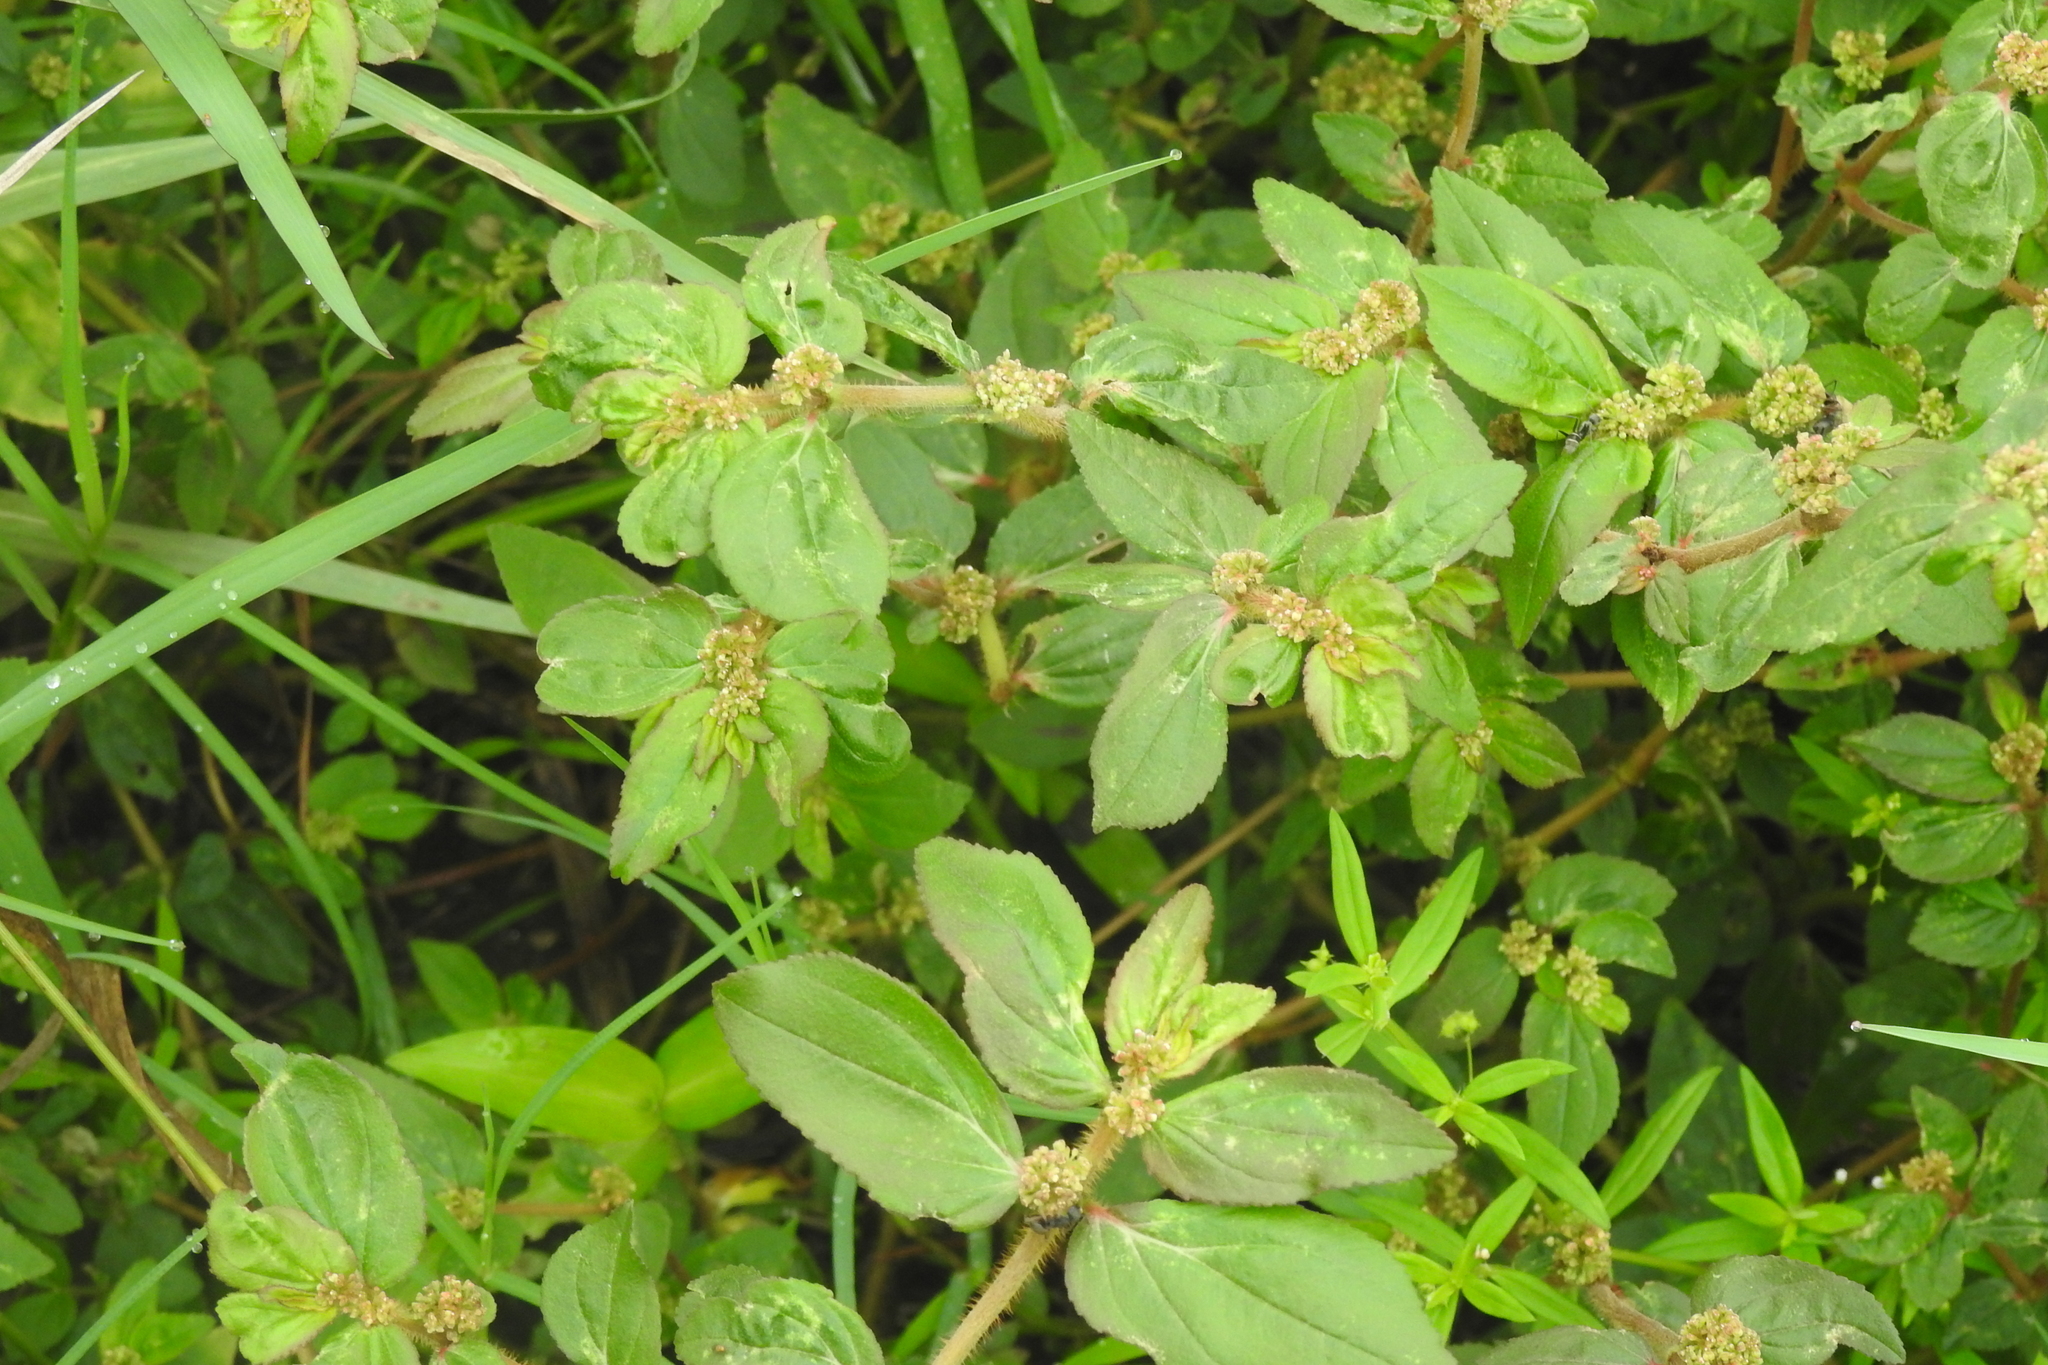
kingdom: Plantae
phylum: Tracheophyta
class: Magnoliopsida
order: Malpighiales
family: Euphorbiaceae
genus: Euphorbia
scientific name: Euphorbia hirta
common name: Pillpod sandmat
